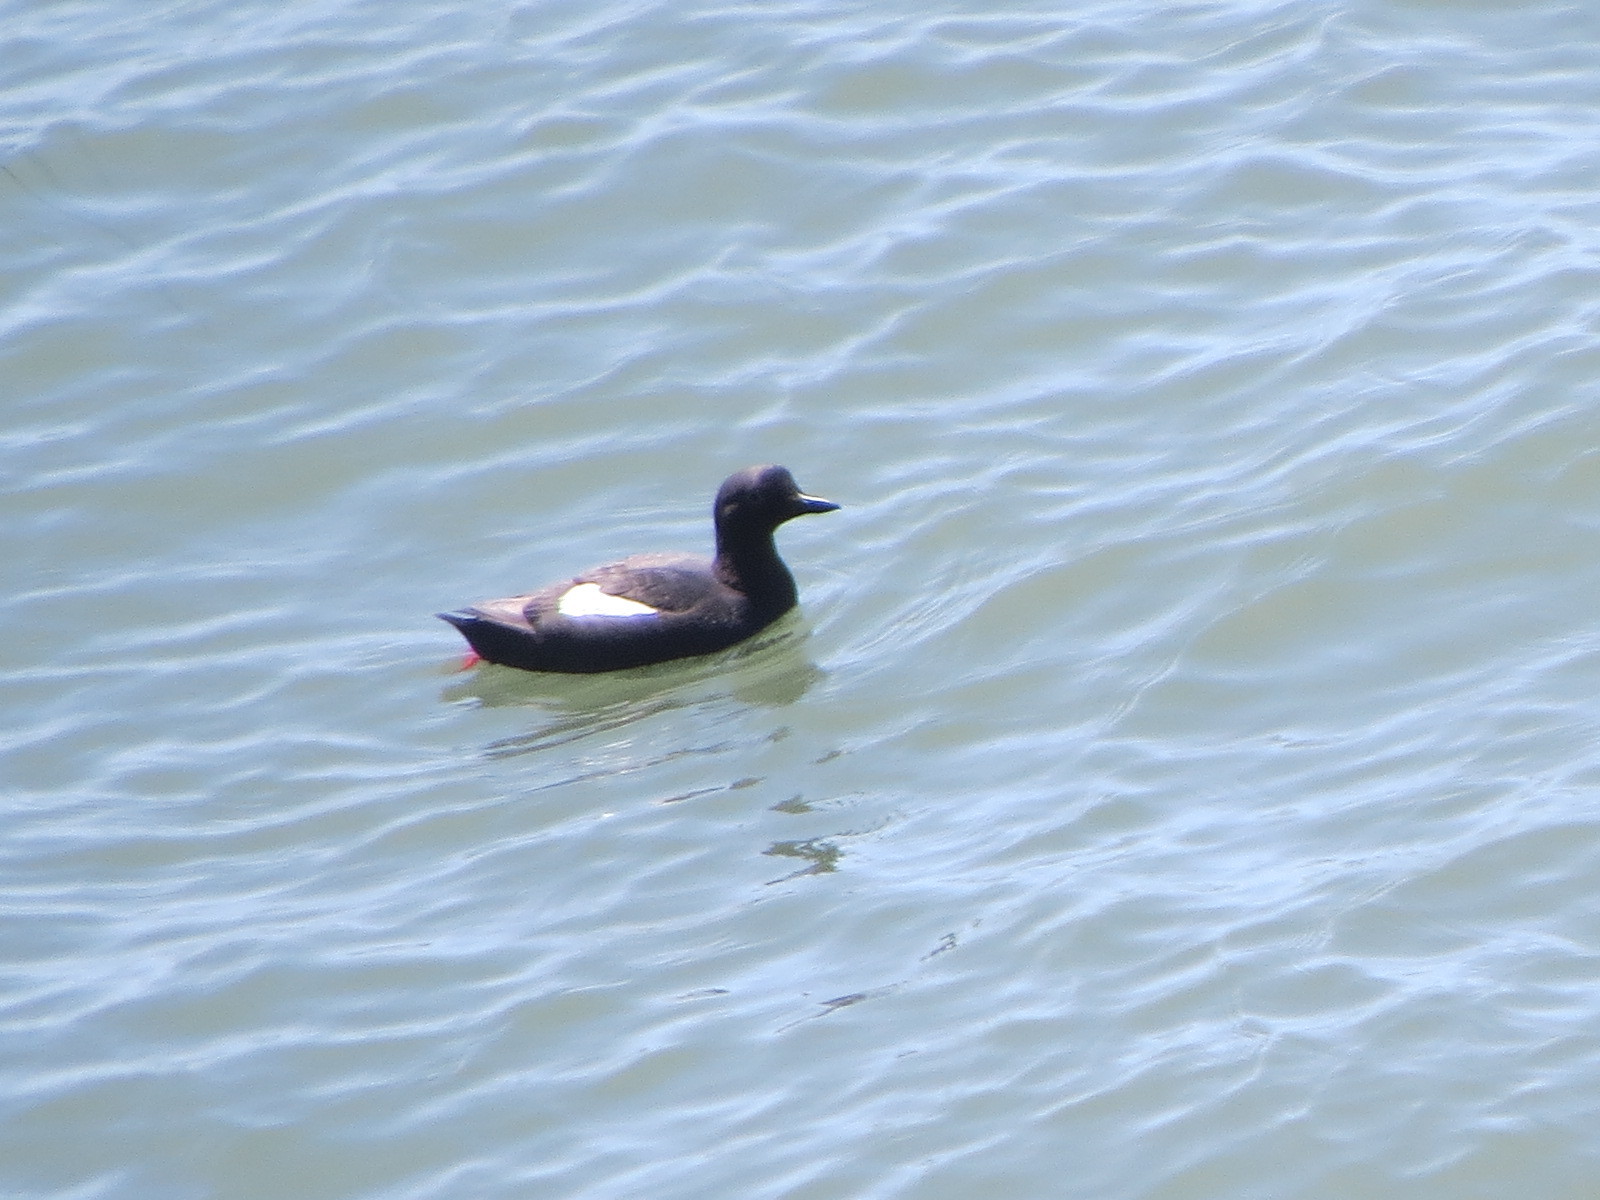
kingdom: Animalia
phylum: Chordata
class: Aves
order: Charadriiformes
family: Alcidae
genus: Cepphus
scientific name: Cepphus columba
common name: Pigeon guillemot
